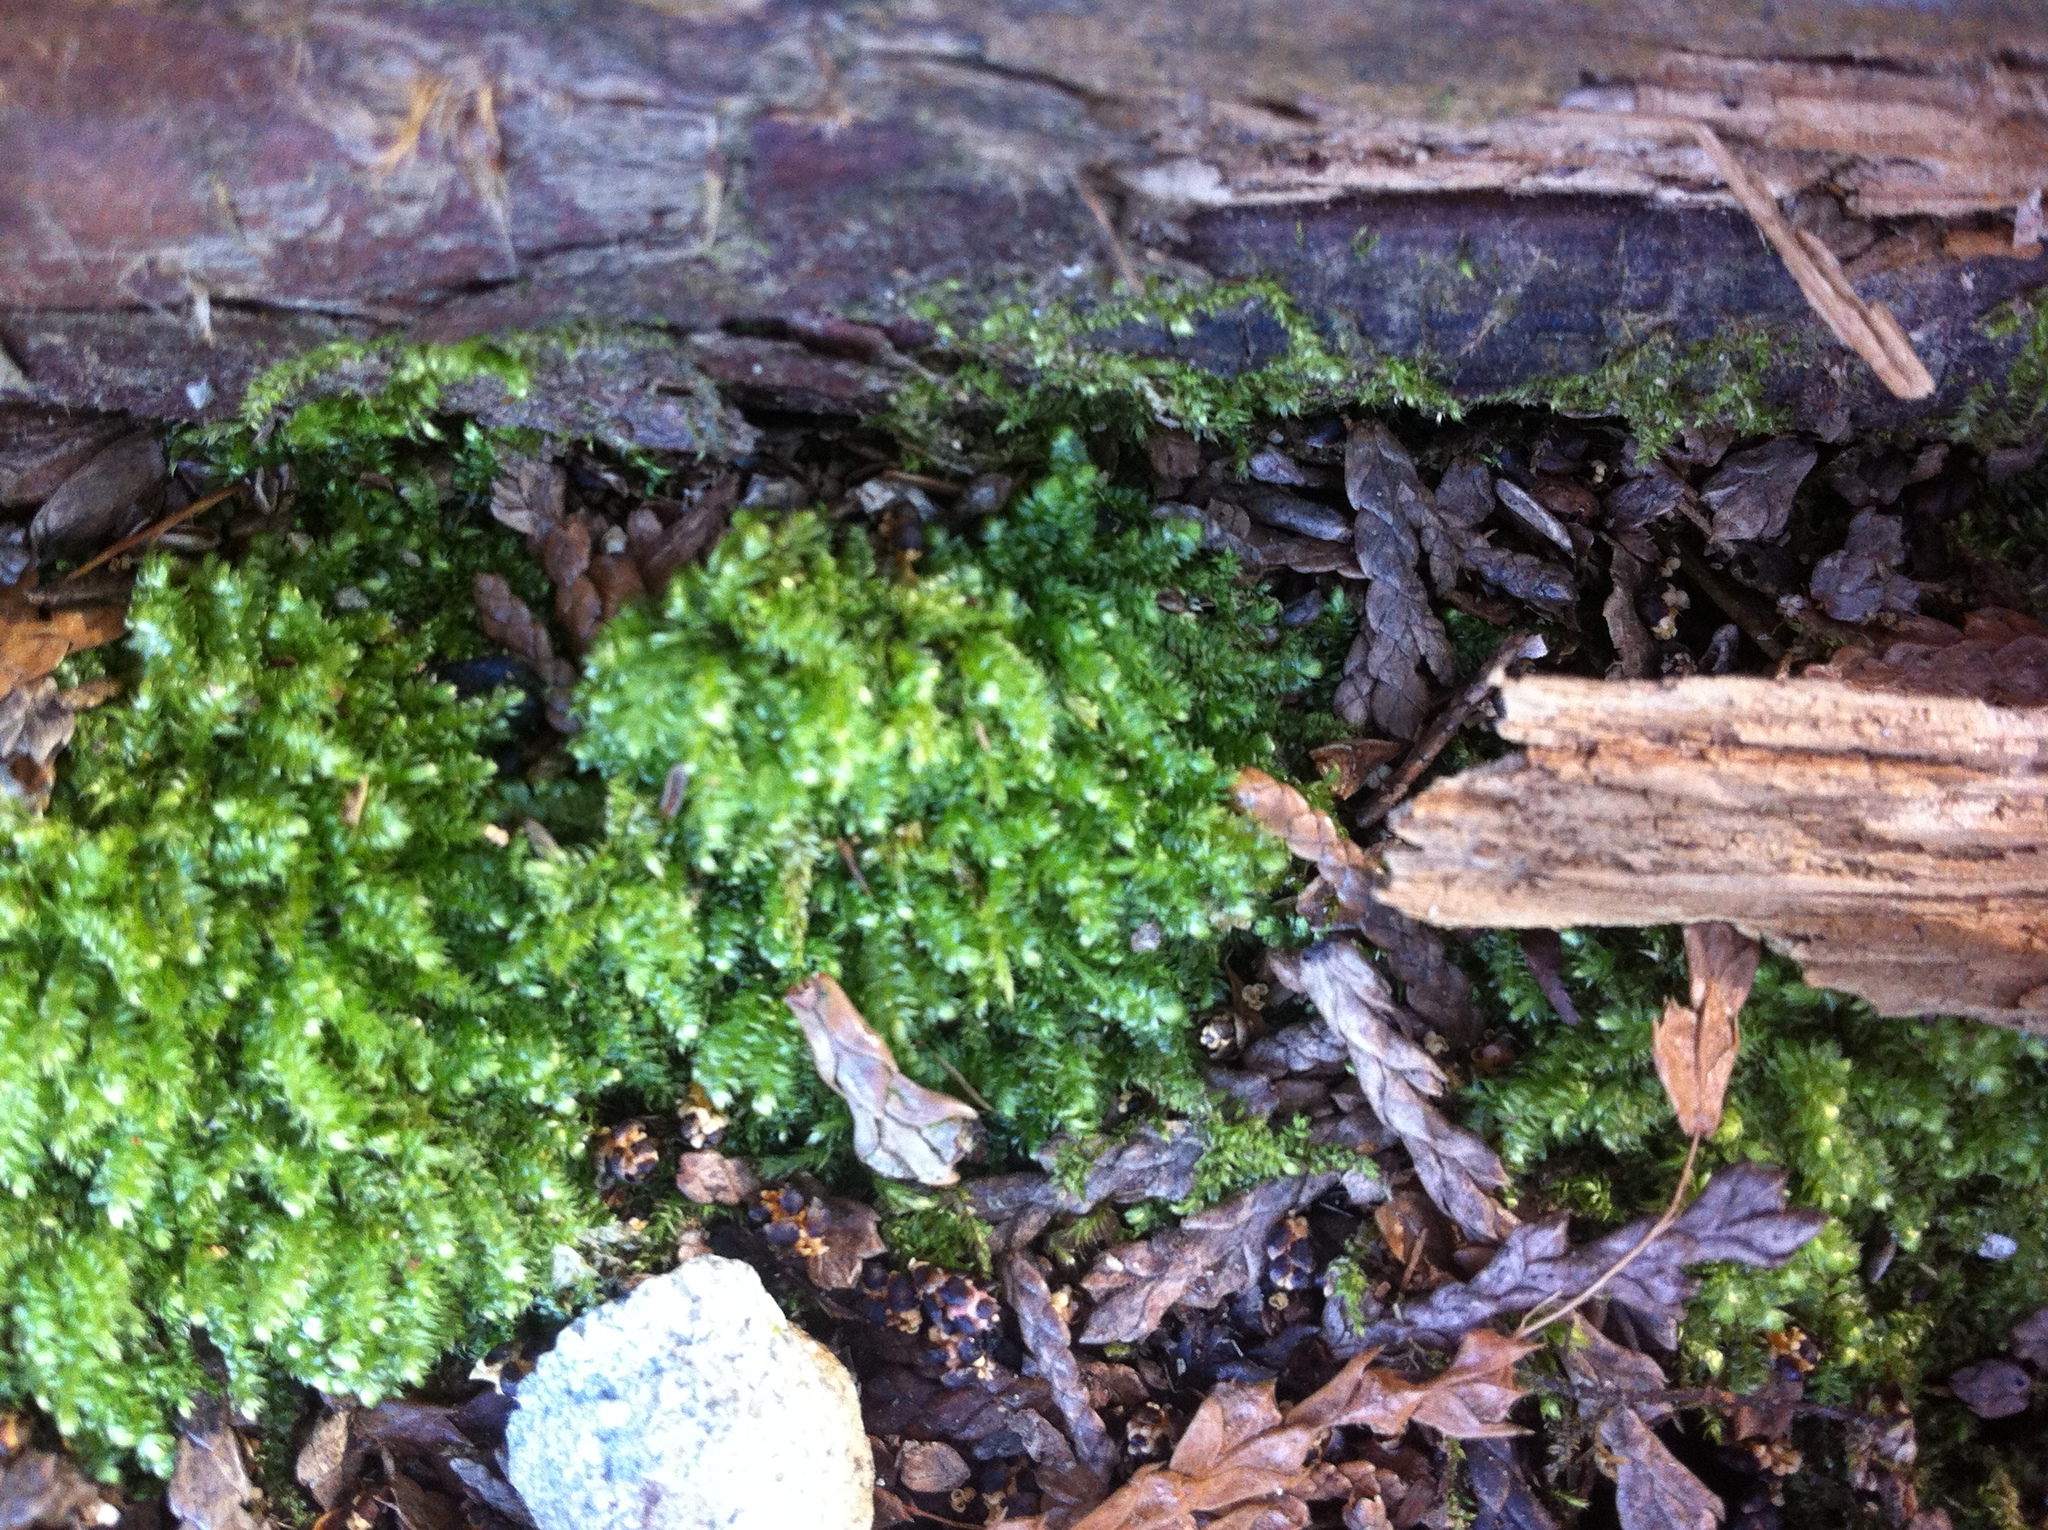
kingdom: Plantae
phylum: Bryophyta
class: Bryopsida
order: Hypnales
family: Plagiotheciaceae
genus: Pseudotaxiphyllum
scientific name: Pseudotaxiphyllum elegans
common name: Elegant silk moss
